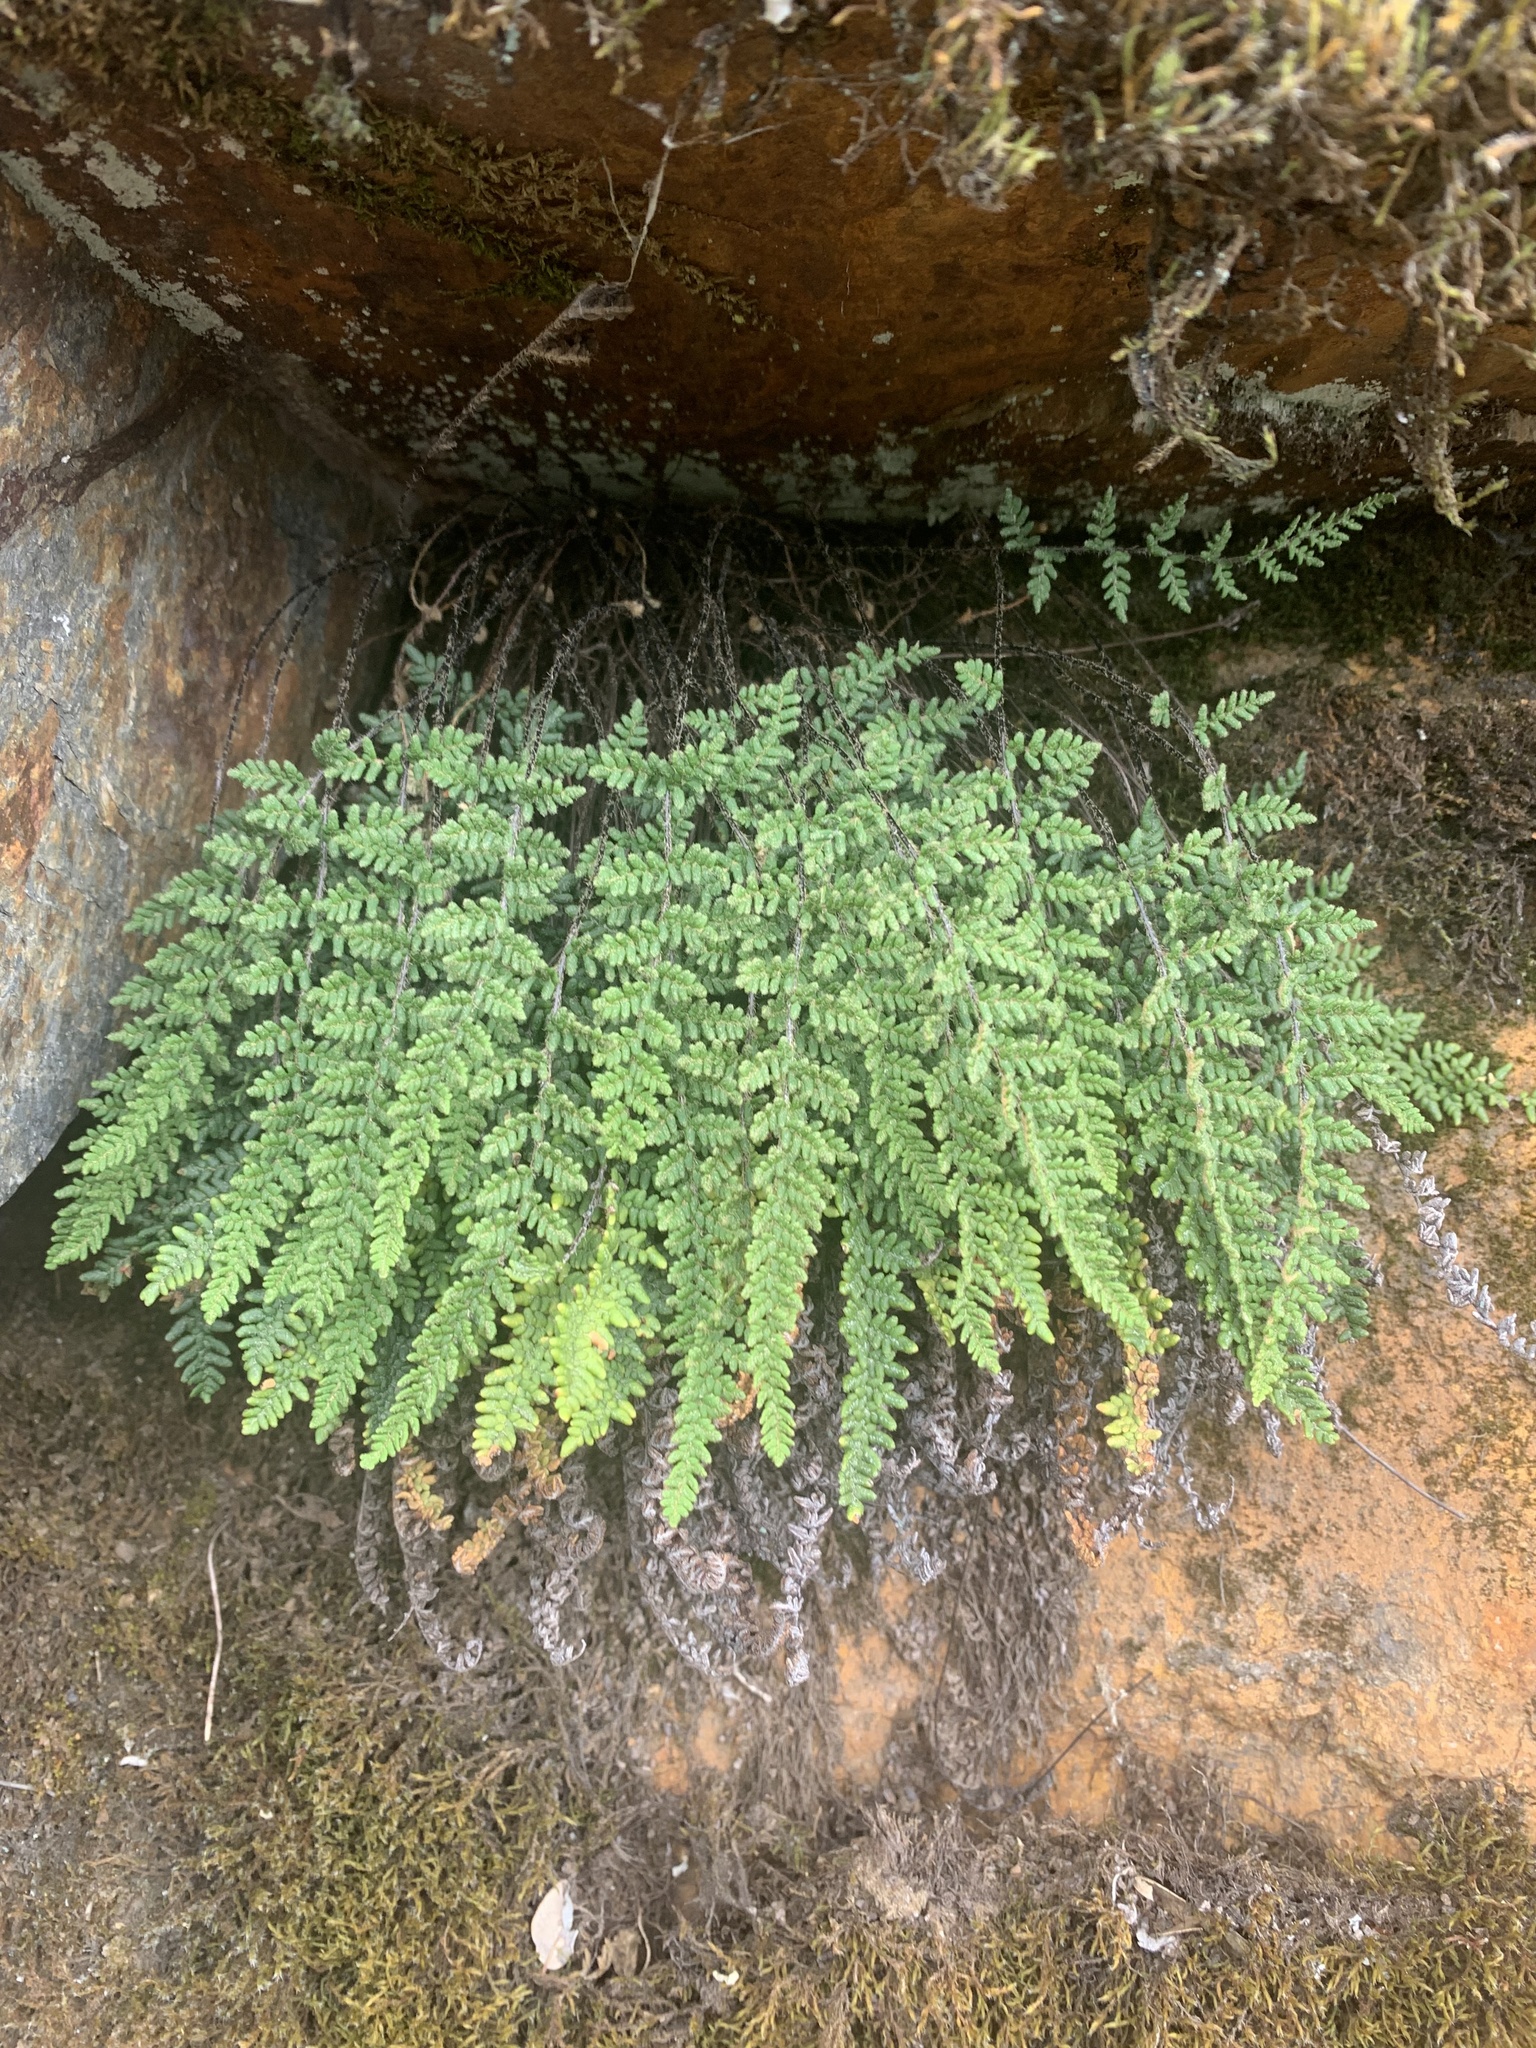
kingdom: Plantae
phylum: Tracheophyta
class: Polypodiopsida
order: Polypodiales
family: Pteridaceae
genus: Myriopteris
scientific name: Myriopteris gracillima
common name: Lace fern
